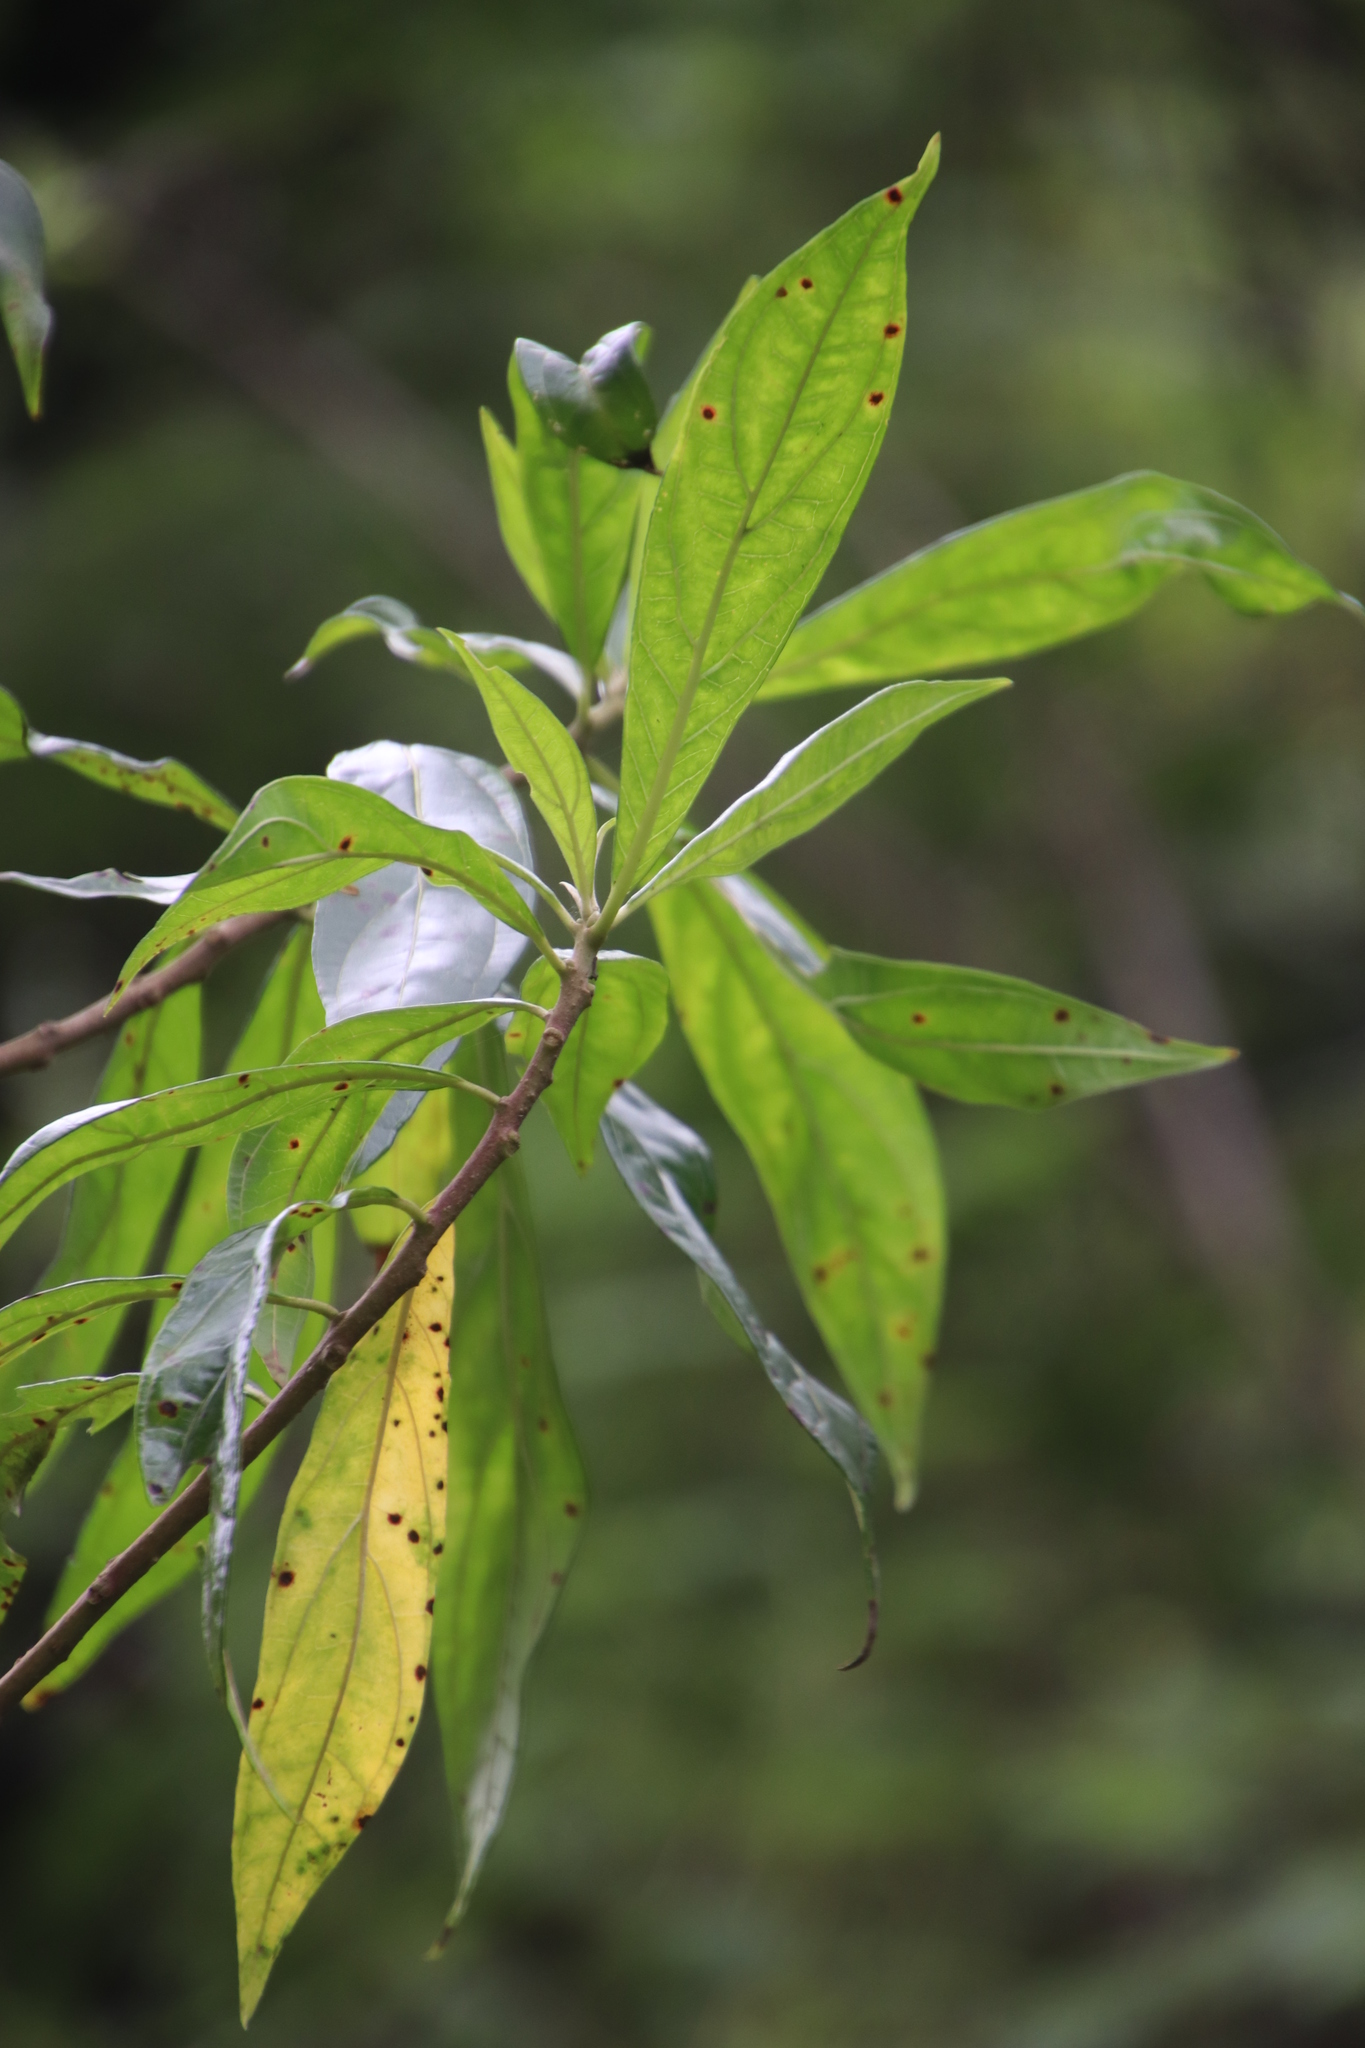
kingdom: Plantae
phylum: Tracheophyta
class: Magnoliopsida
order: Myrtales
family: Myrtaceae
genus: Heteropyxis
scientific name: Heteropyxis canescens
